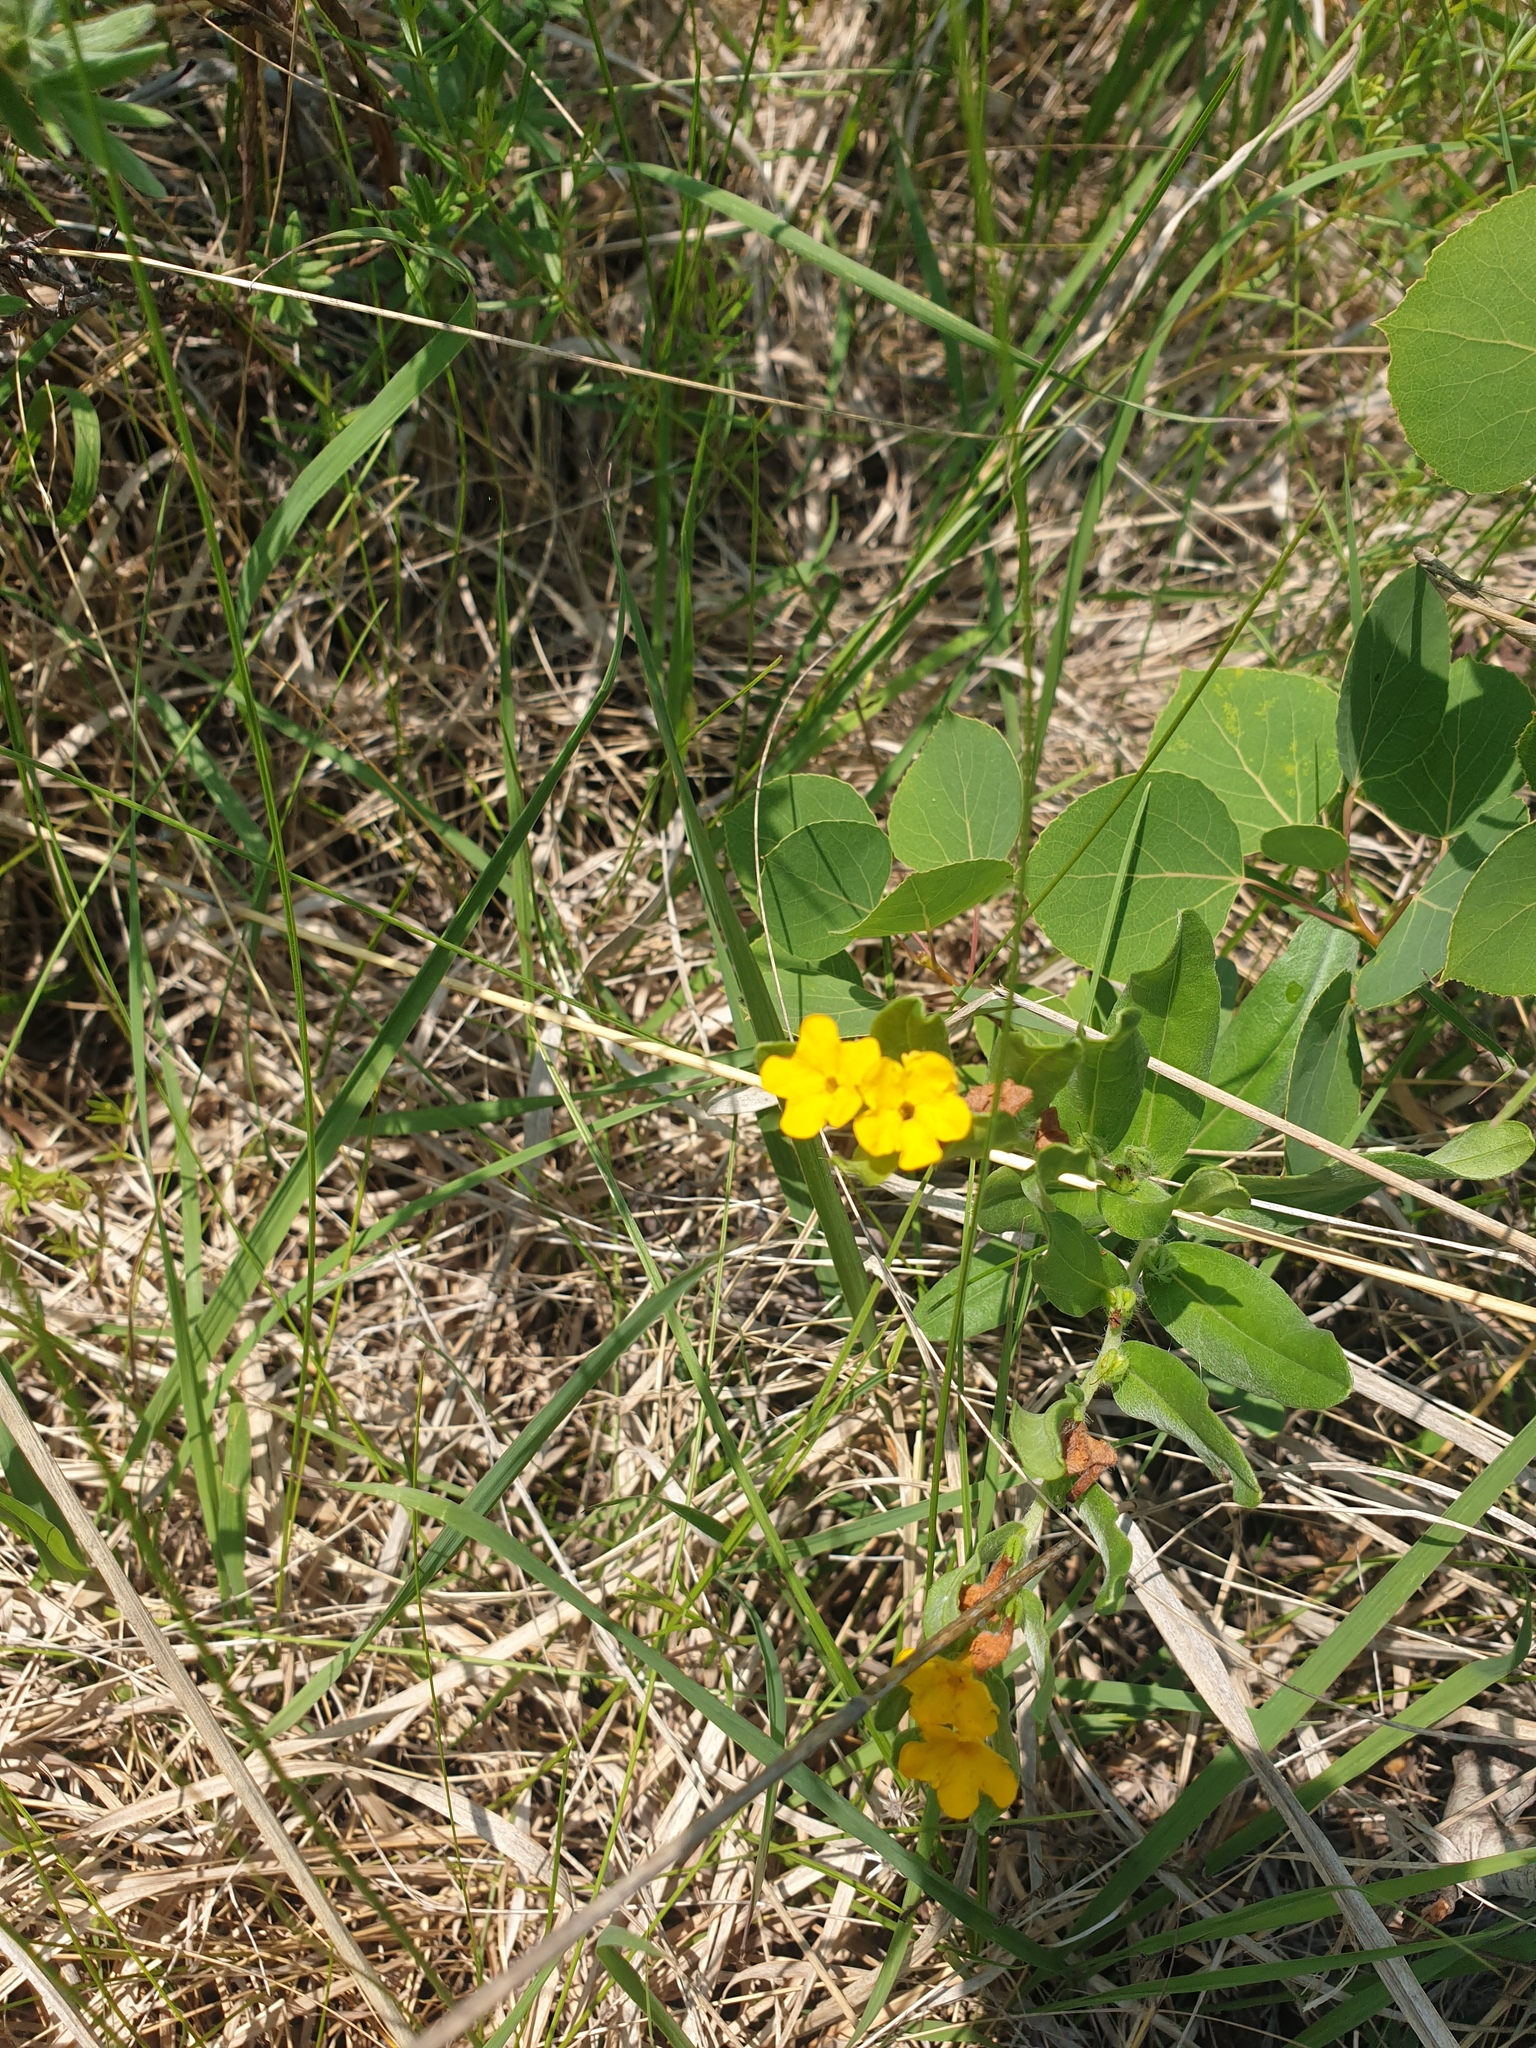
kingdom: Plantae
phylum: Tracheophyta
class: Magnoliopsida
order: Boraginales
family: Boraginaceae
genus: Lithospermum
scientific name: Lithospermum canescens
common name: Hoary puccoon
